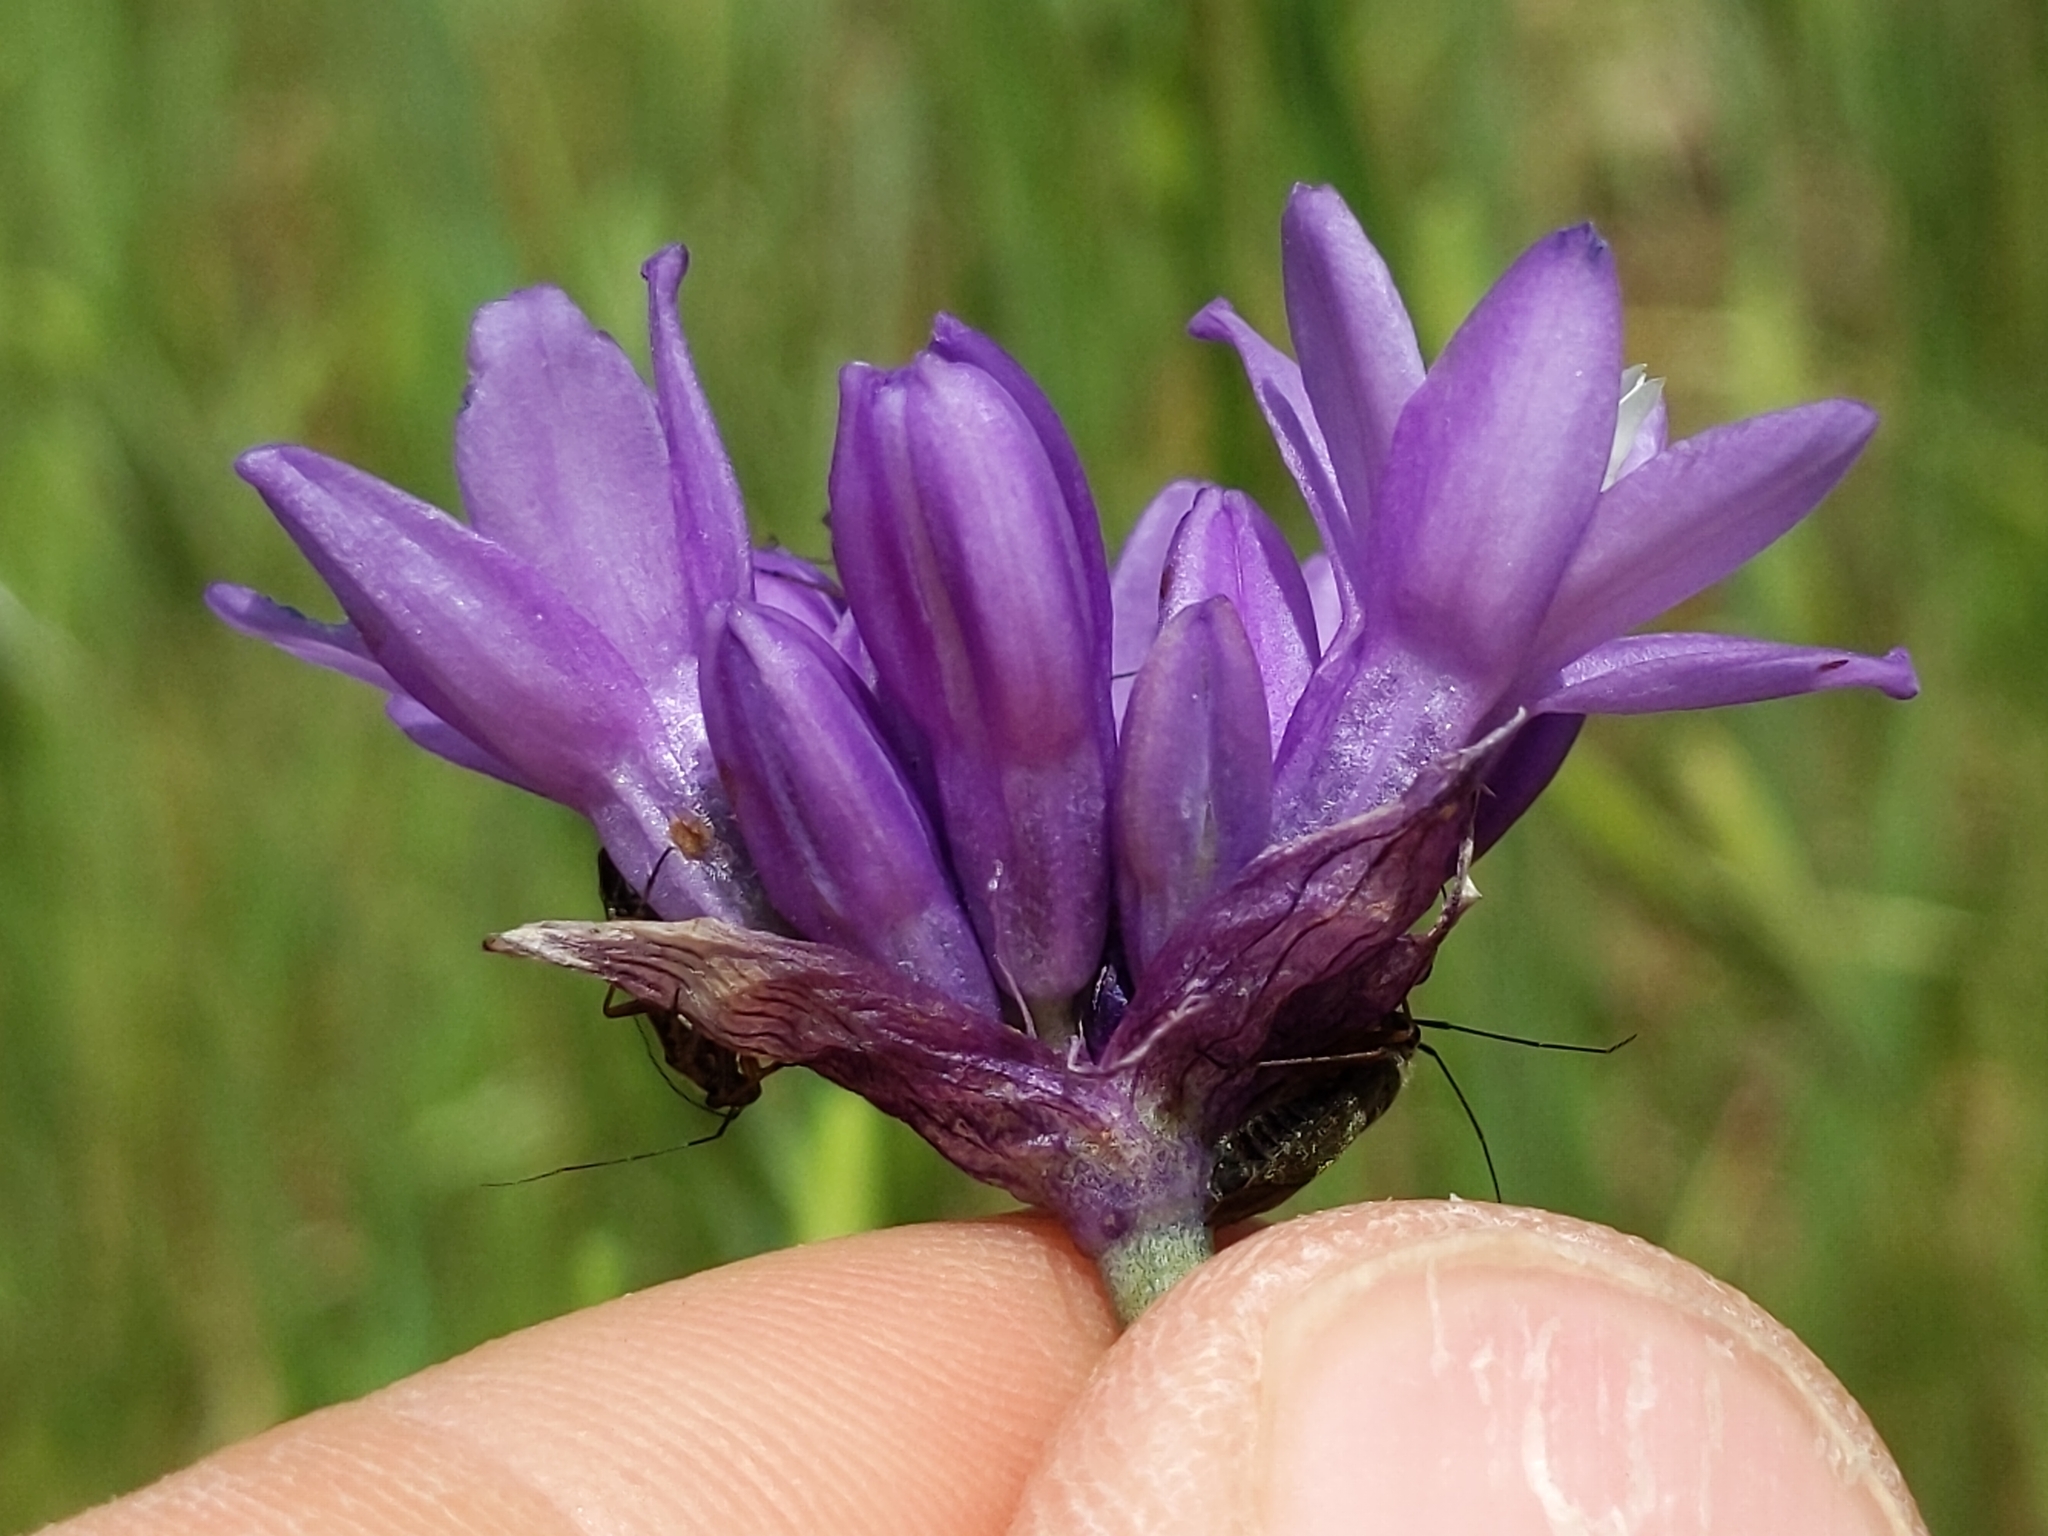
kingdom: Plantae
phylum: Tracheophyta
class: Liliopsida
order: Asparagales
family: Asparagaceae
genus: Dipterostemon
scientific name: Dipterostemon capitatus
